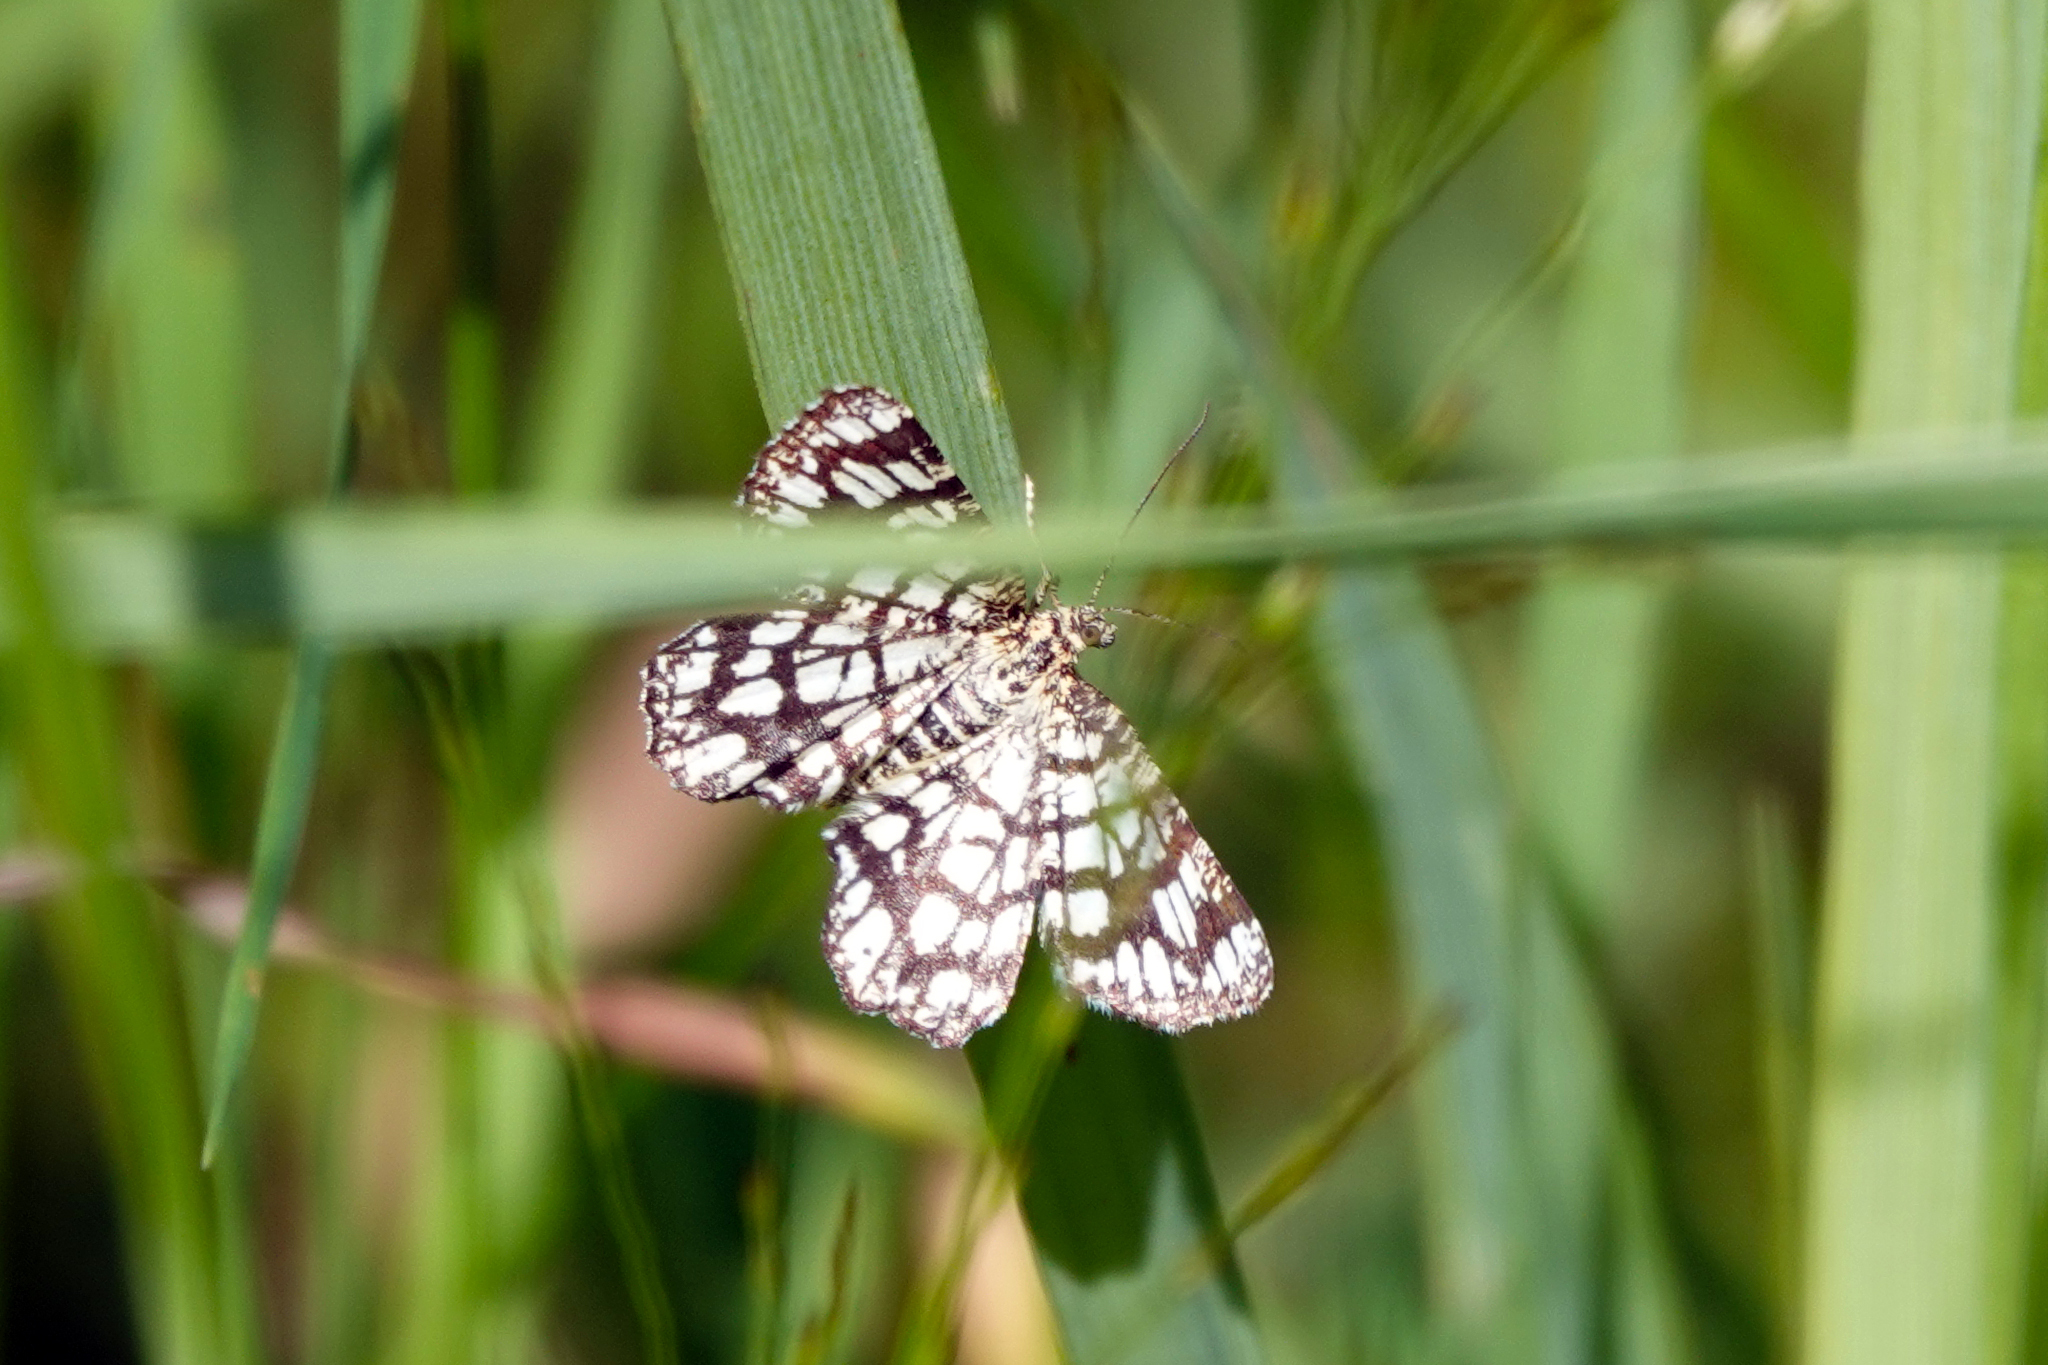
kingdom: Animalia
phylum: Arthropoda
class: Insecta
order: Lepidoptera
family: Geometridae
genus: Chiasmia
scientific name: Chiasmia clathrata
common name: Latticed heath
